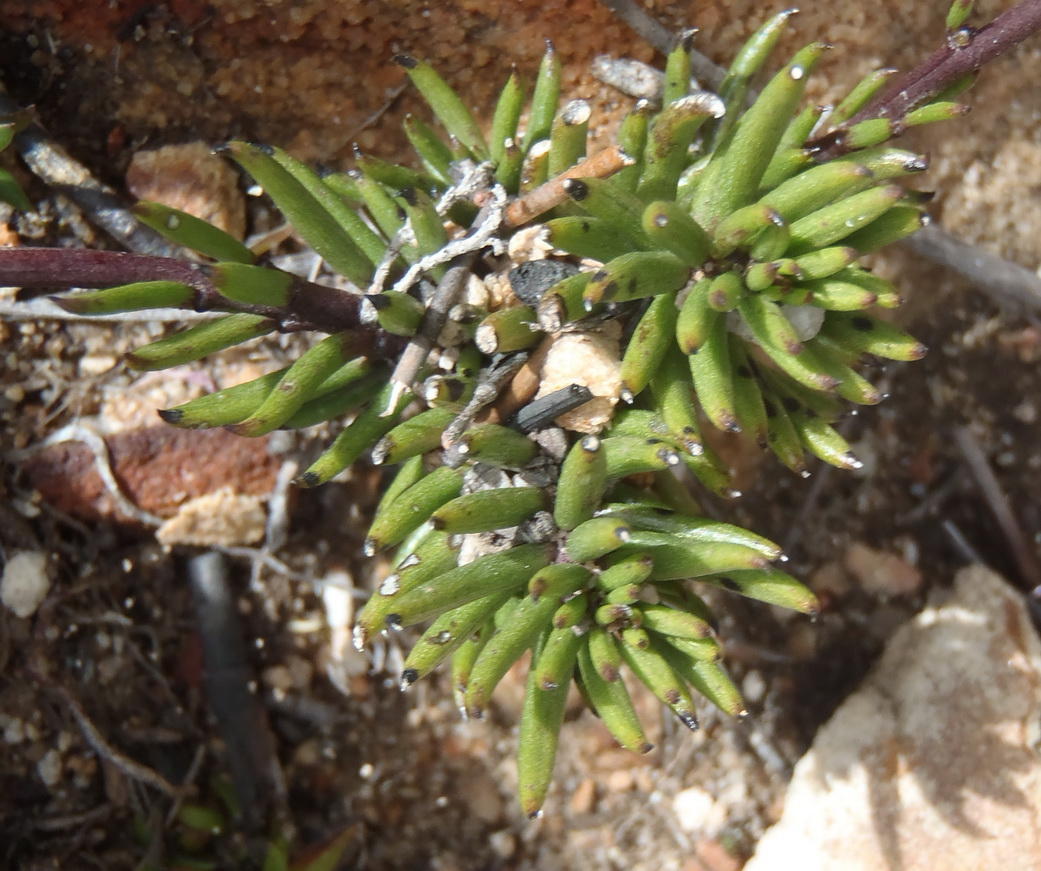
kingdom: Plantae
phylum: Tracheophyta
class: Magnoliopsida
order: Brassicales
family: Brassicaceae
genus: Heliophila
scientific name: Heliophila elongata
